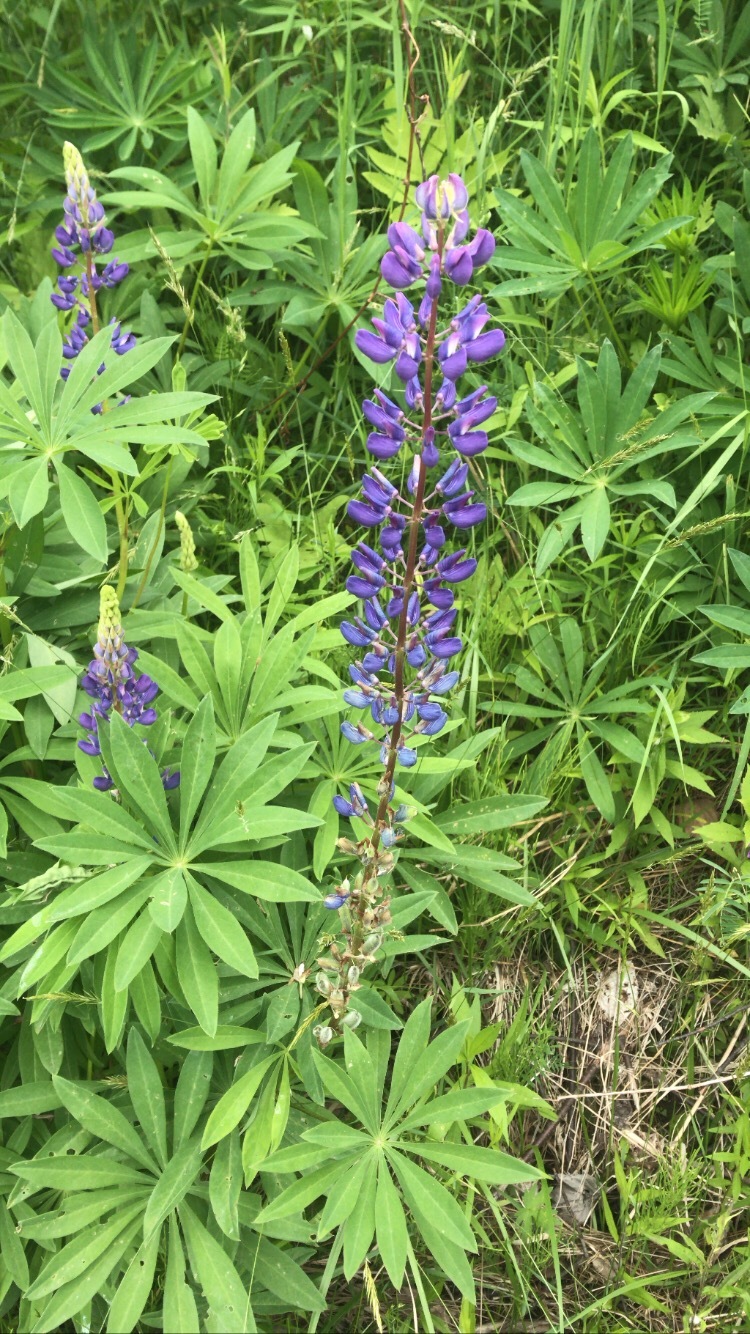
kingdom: Plantae
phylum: Tracheophyta
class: Magnoliopsida
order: Fabales
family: Fabaceae
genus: Lupinus
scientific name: Lupinus polyphyllus
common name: Garden lupin
